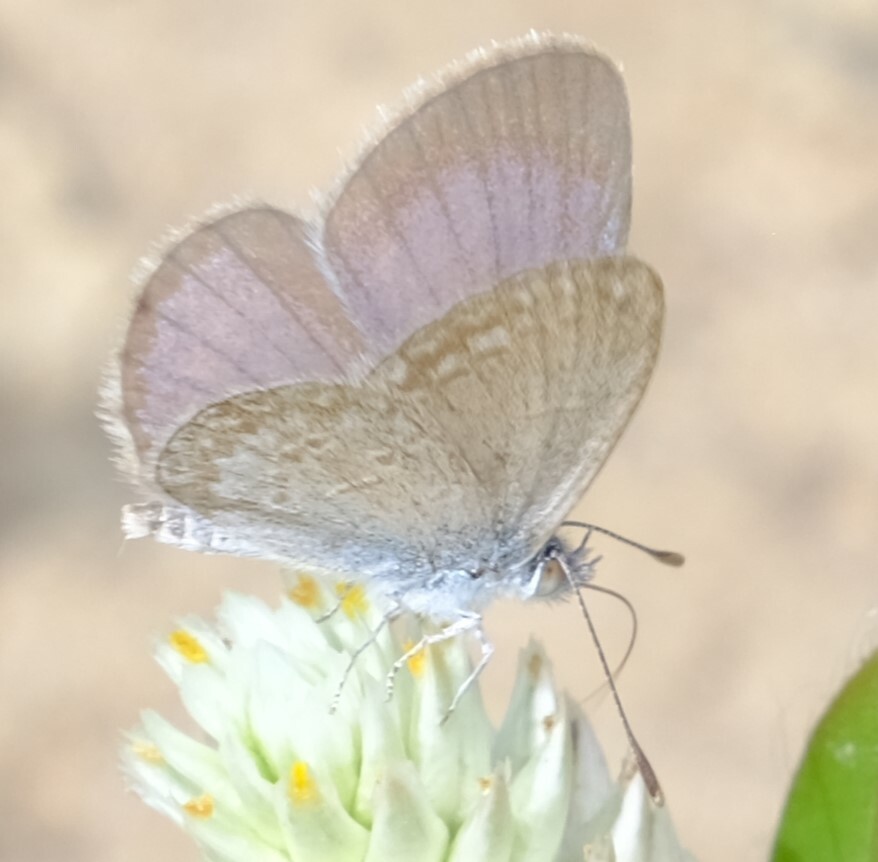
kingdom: Animalia
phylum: Arthropoda
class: Insecta
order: Lepidoptera
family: Lycaenidae
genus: Zizina
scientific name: Zizina otis
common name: Lesser grass blue
